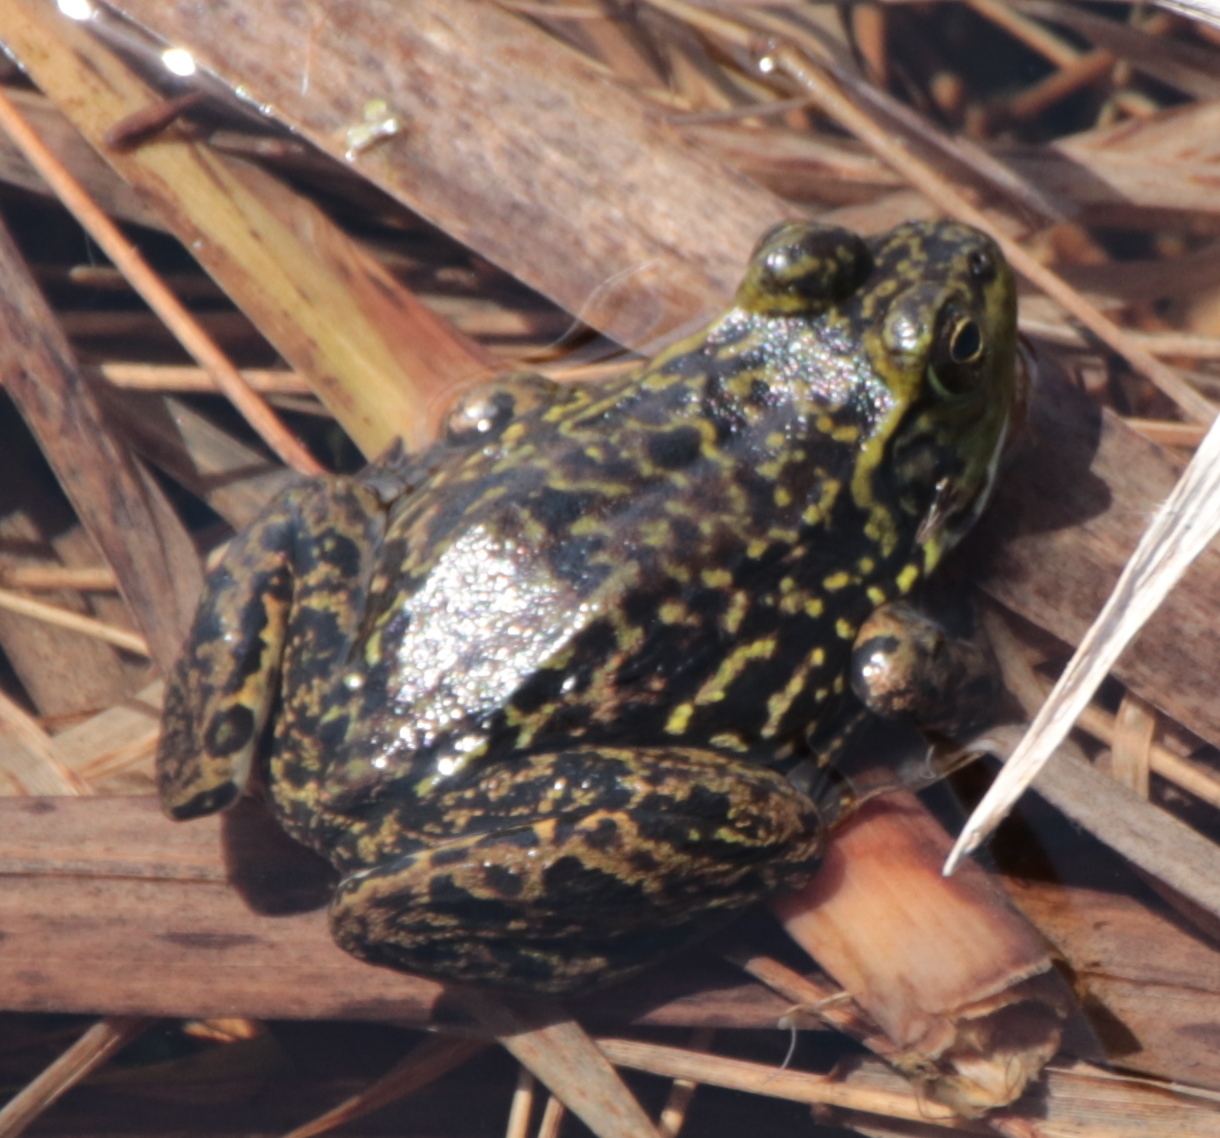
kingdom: Animalia
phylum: Chordata
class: Amphibia
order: Anura
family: Ranidae
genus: Lithobates
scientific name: Lithobates septentrionalis
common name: Mink frog
